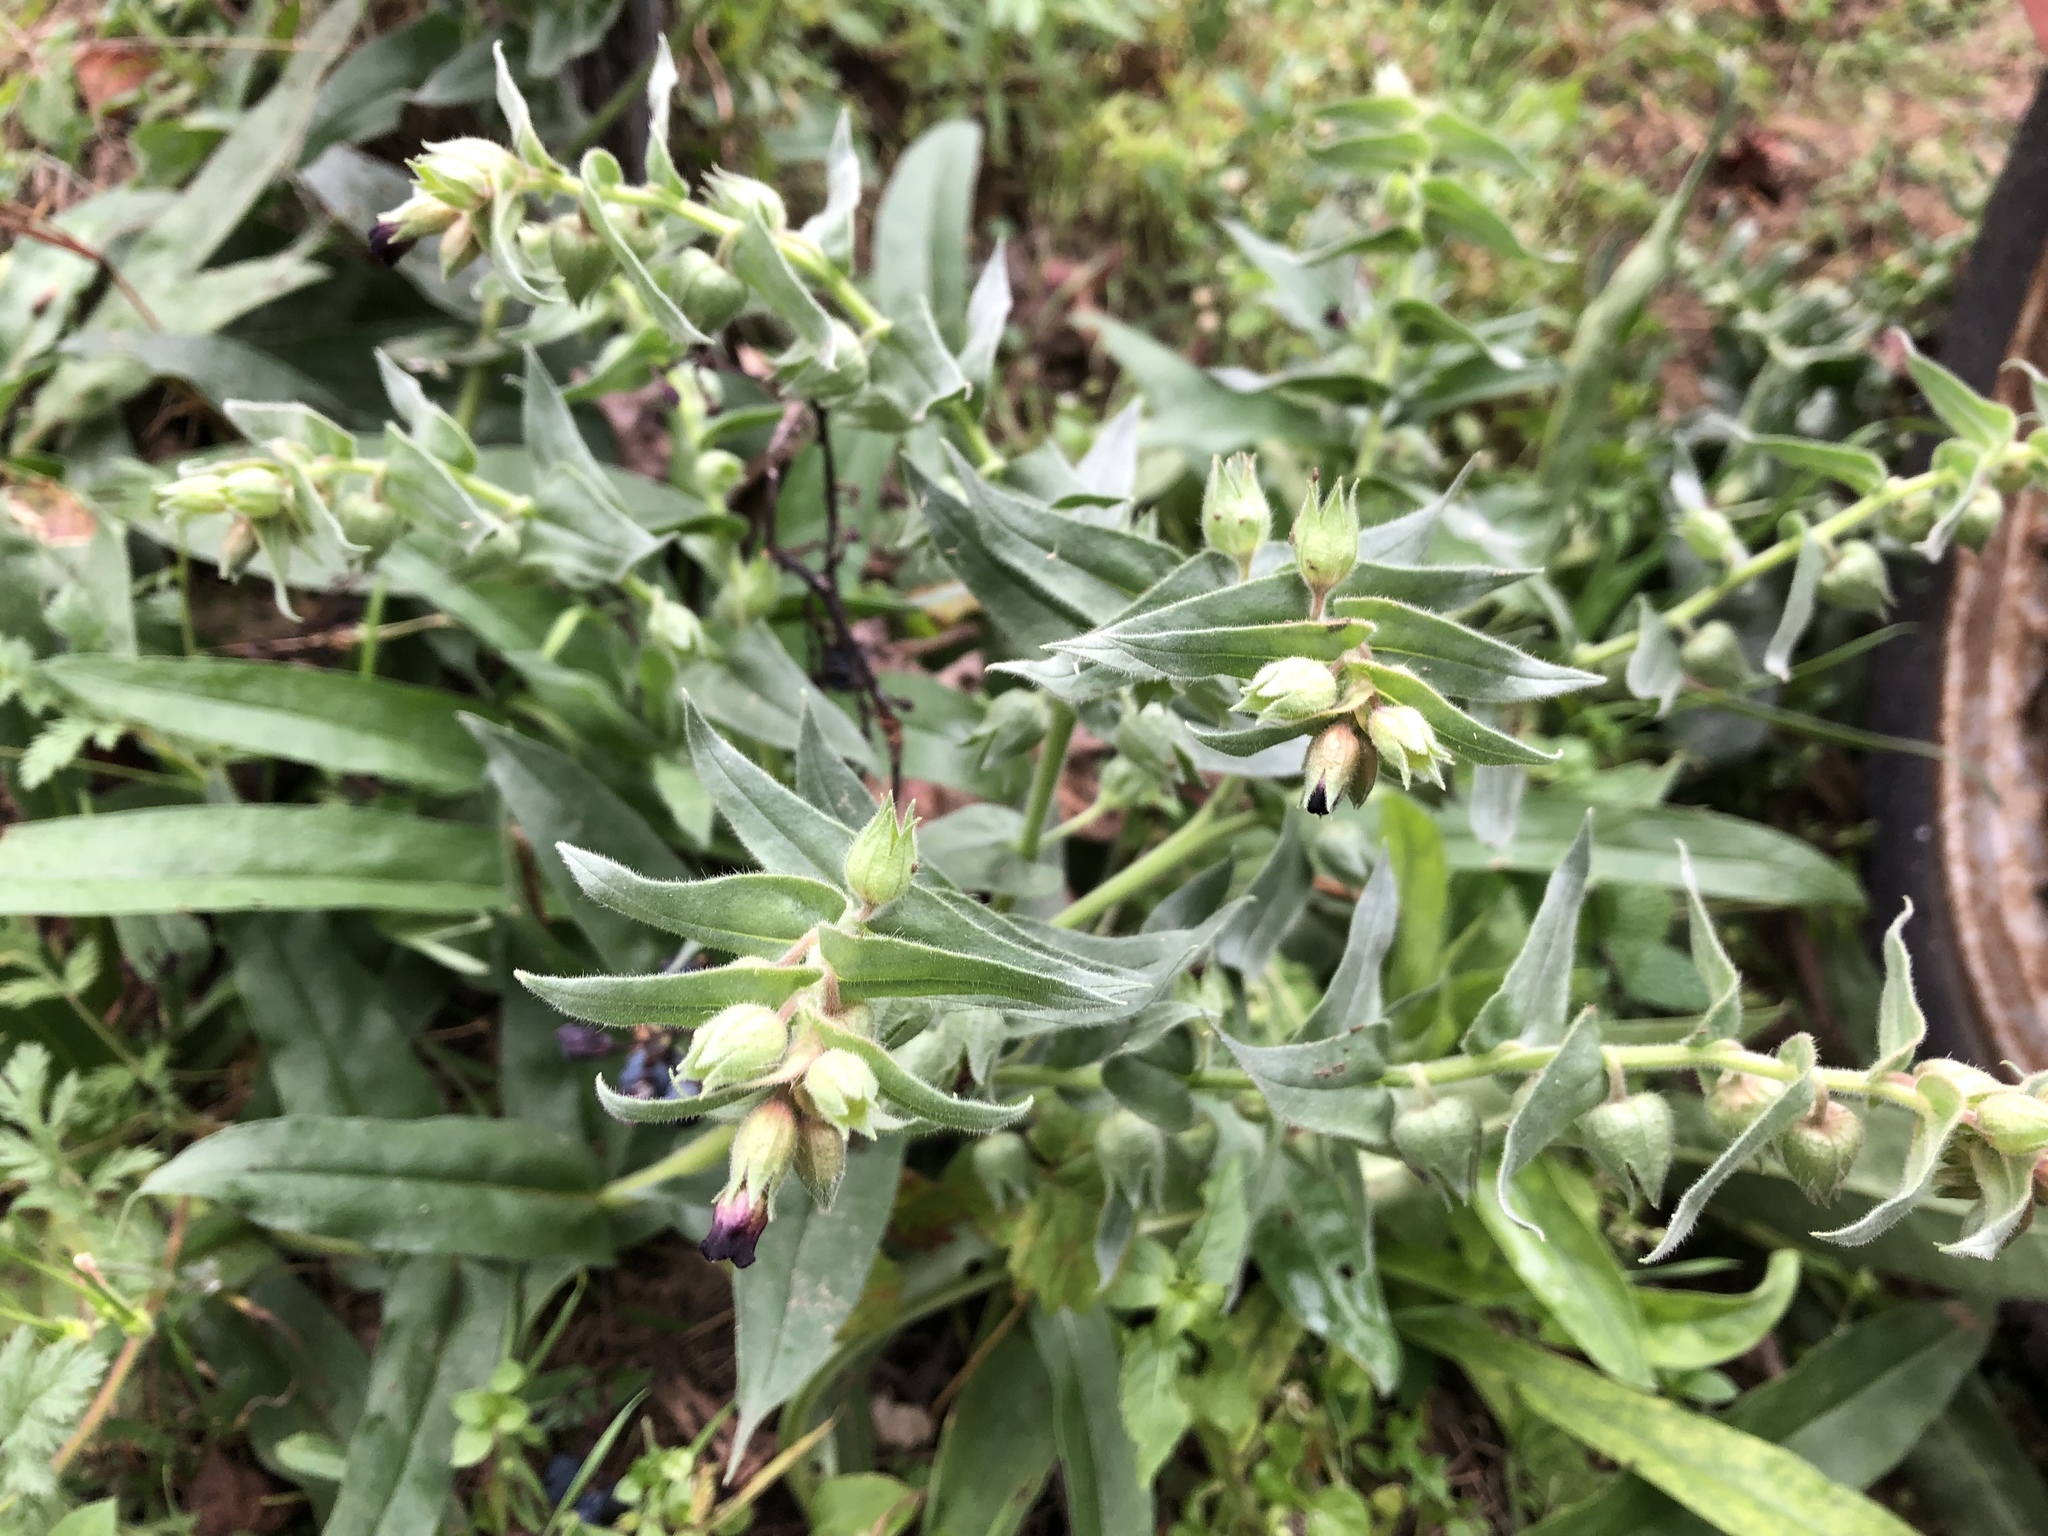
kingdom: Plantae
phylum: Tracheophyta
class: Magnoliopsida
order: Boraginales
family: Boraginaceae
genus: Nonea
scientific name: Nonea pulla
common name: Brown nonea
